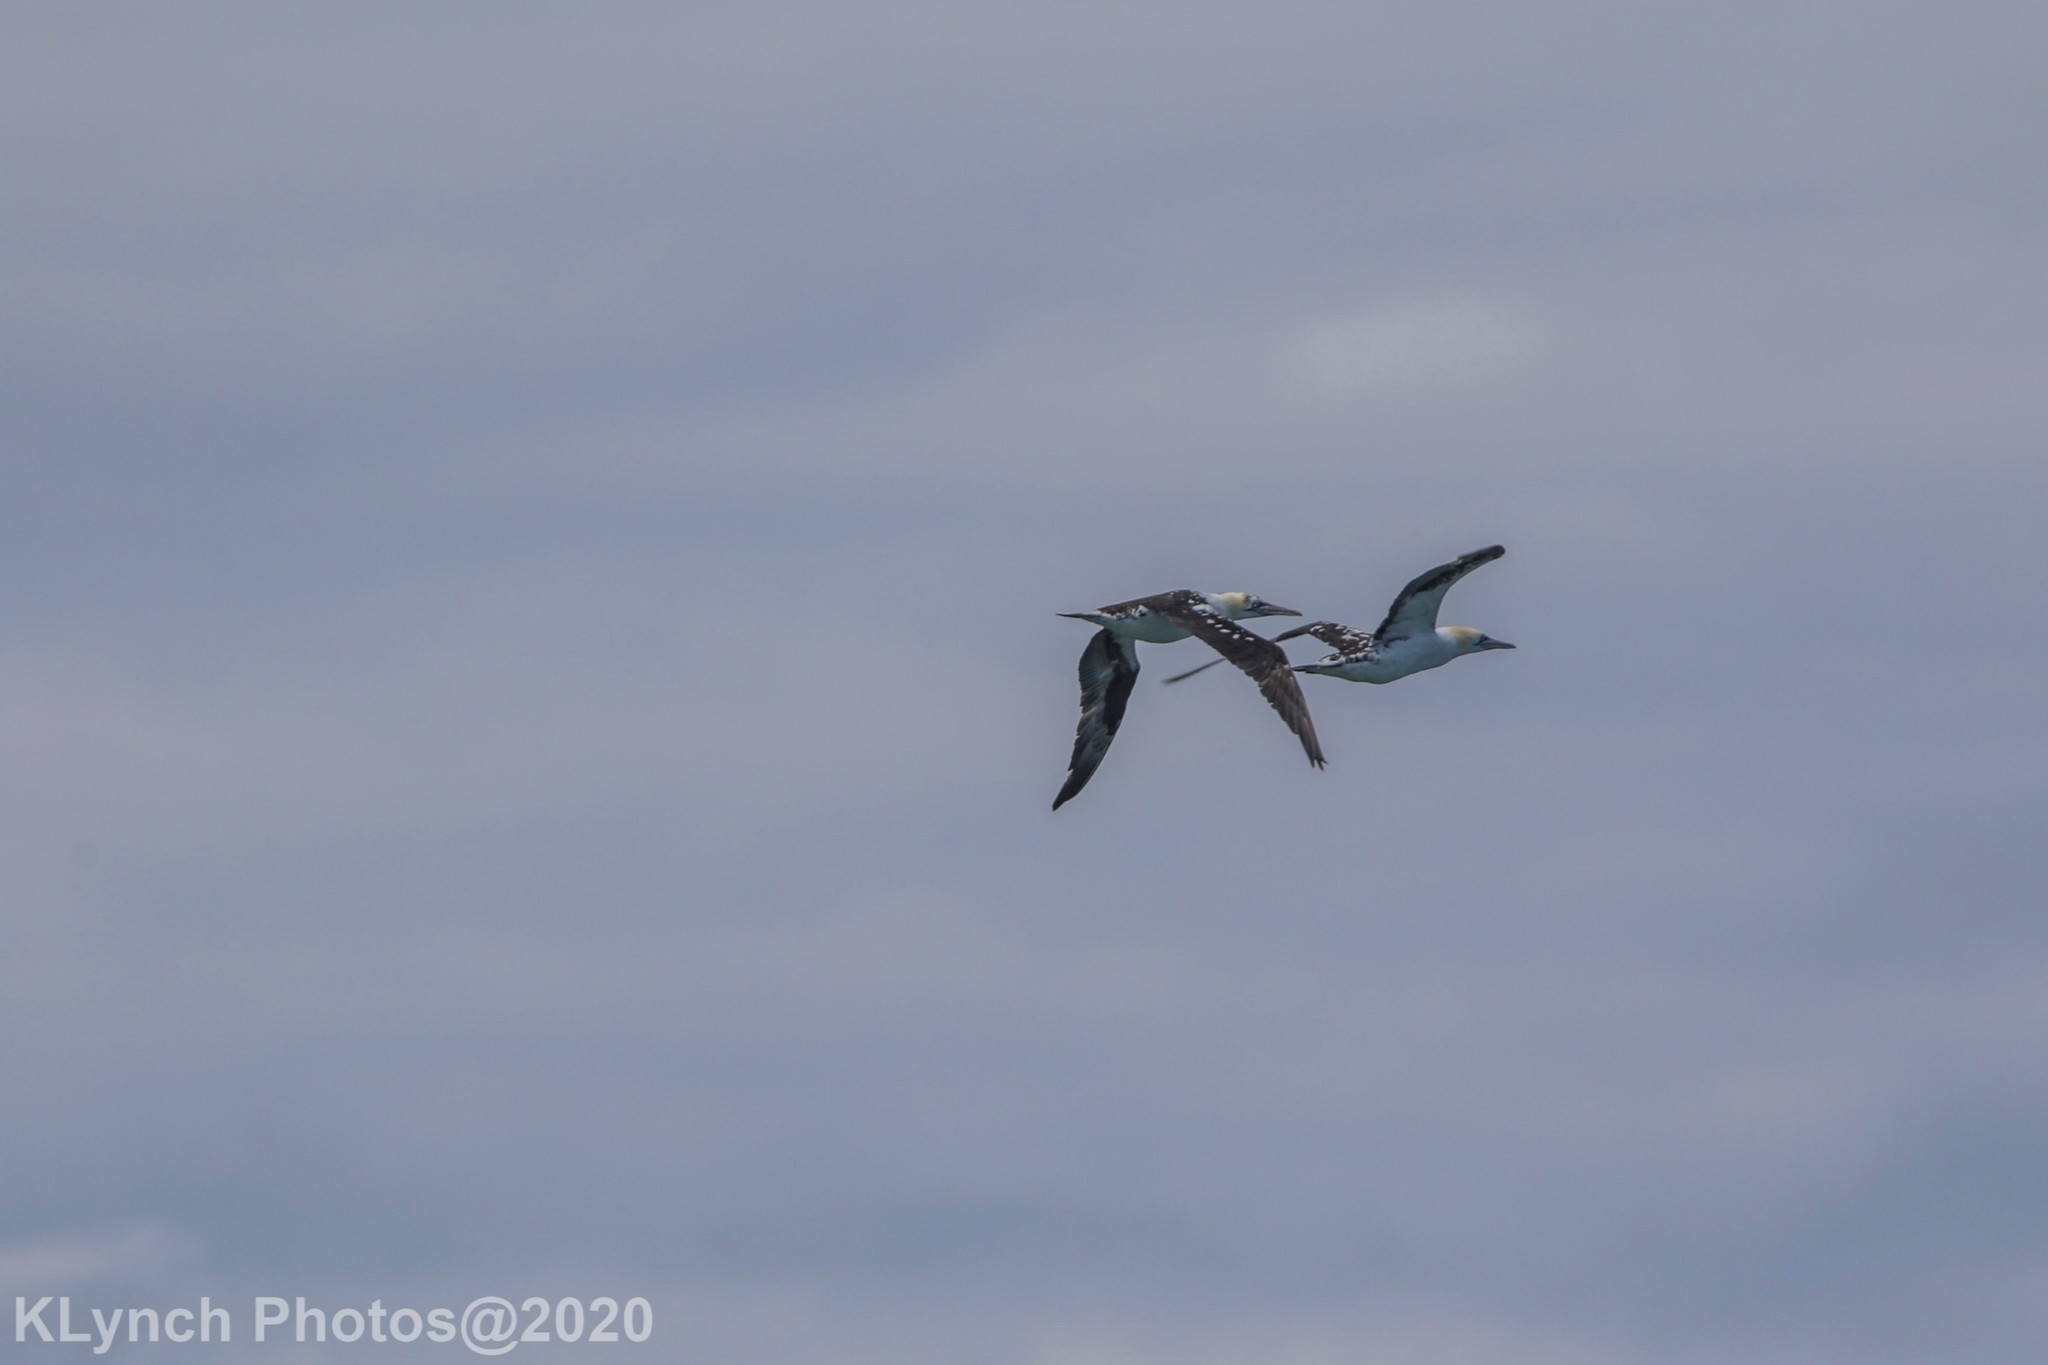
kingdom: Animalia
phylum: Chordata
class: Aves
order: Suliformes
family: Sulidae
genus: Morus
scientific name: Morus bassanus
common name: Northern gannet
